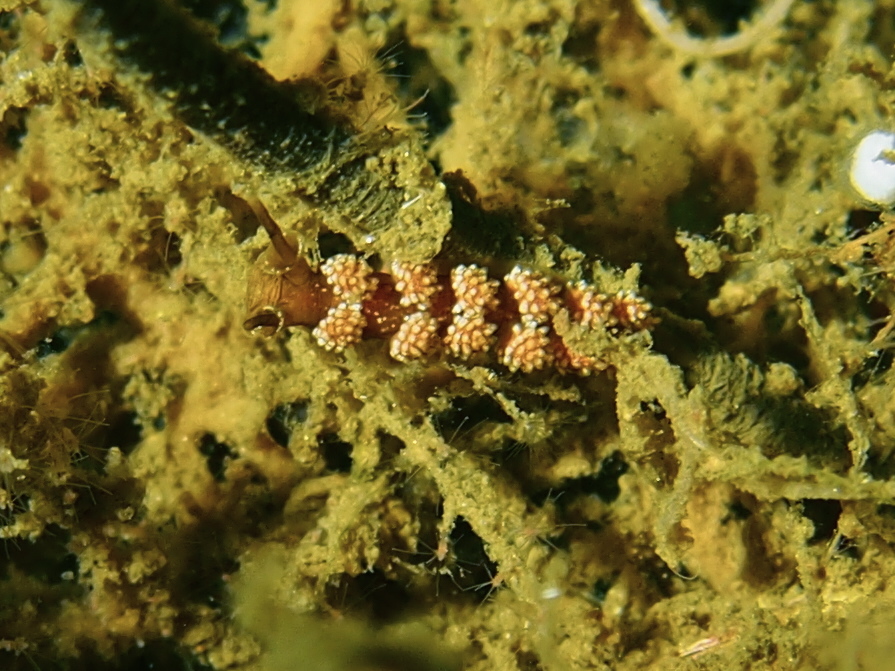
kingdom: Animalia
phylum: Mollusca
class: Gastropoda
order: Nudibranchia
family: Dotidae
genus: Doto
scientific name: Doto fragilis
